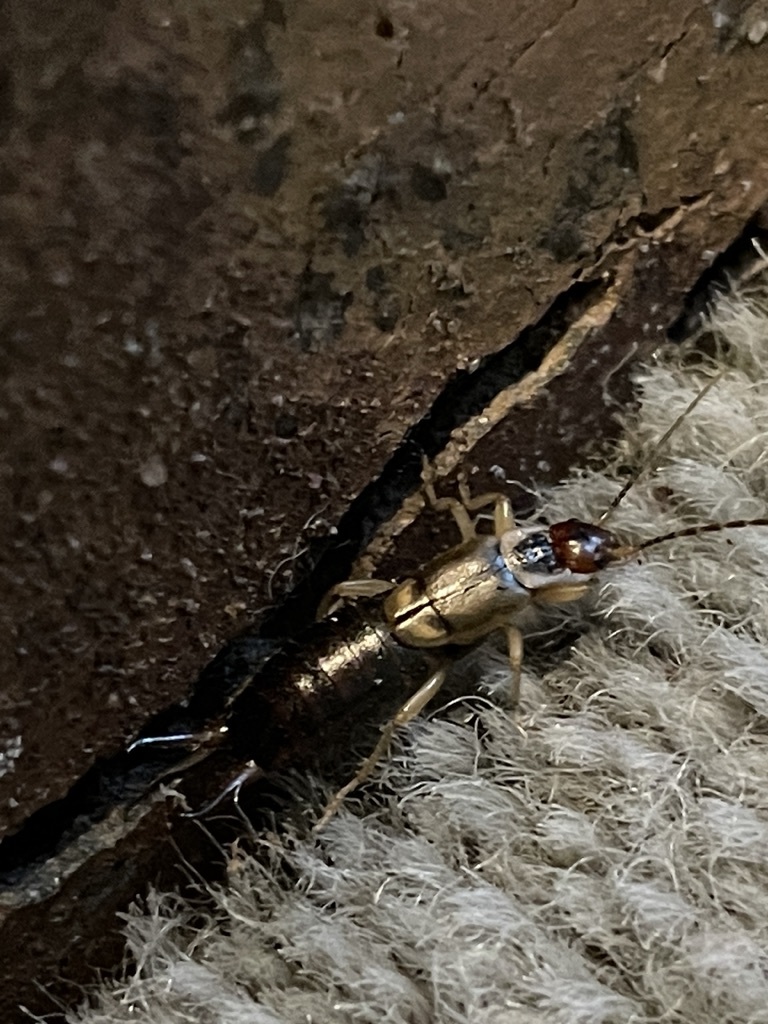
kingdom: Animalia
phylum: Arthropoda
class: Insecta
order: Dermaptera
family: Forficulidae
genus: Forficula
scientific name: Forficula dentata
